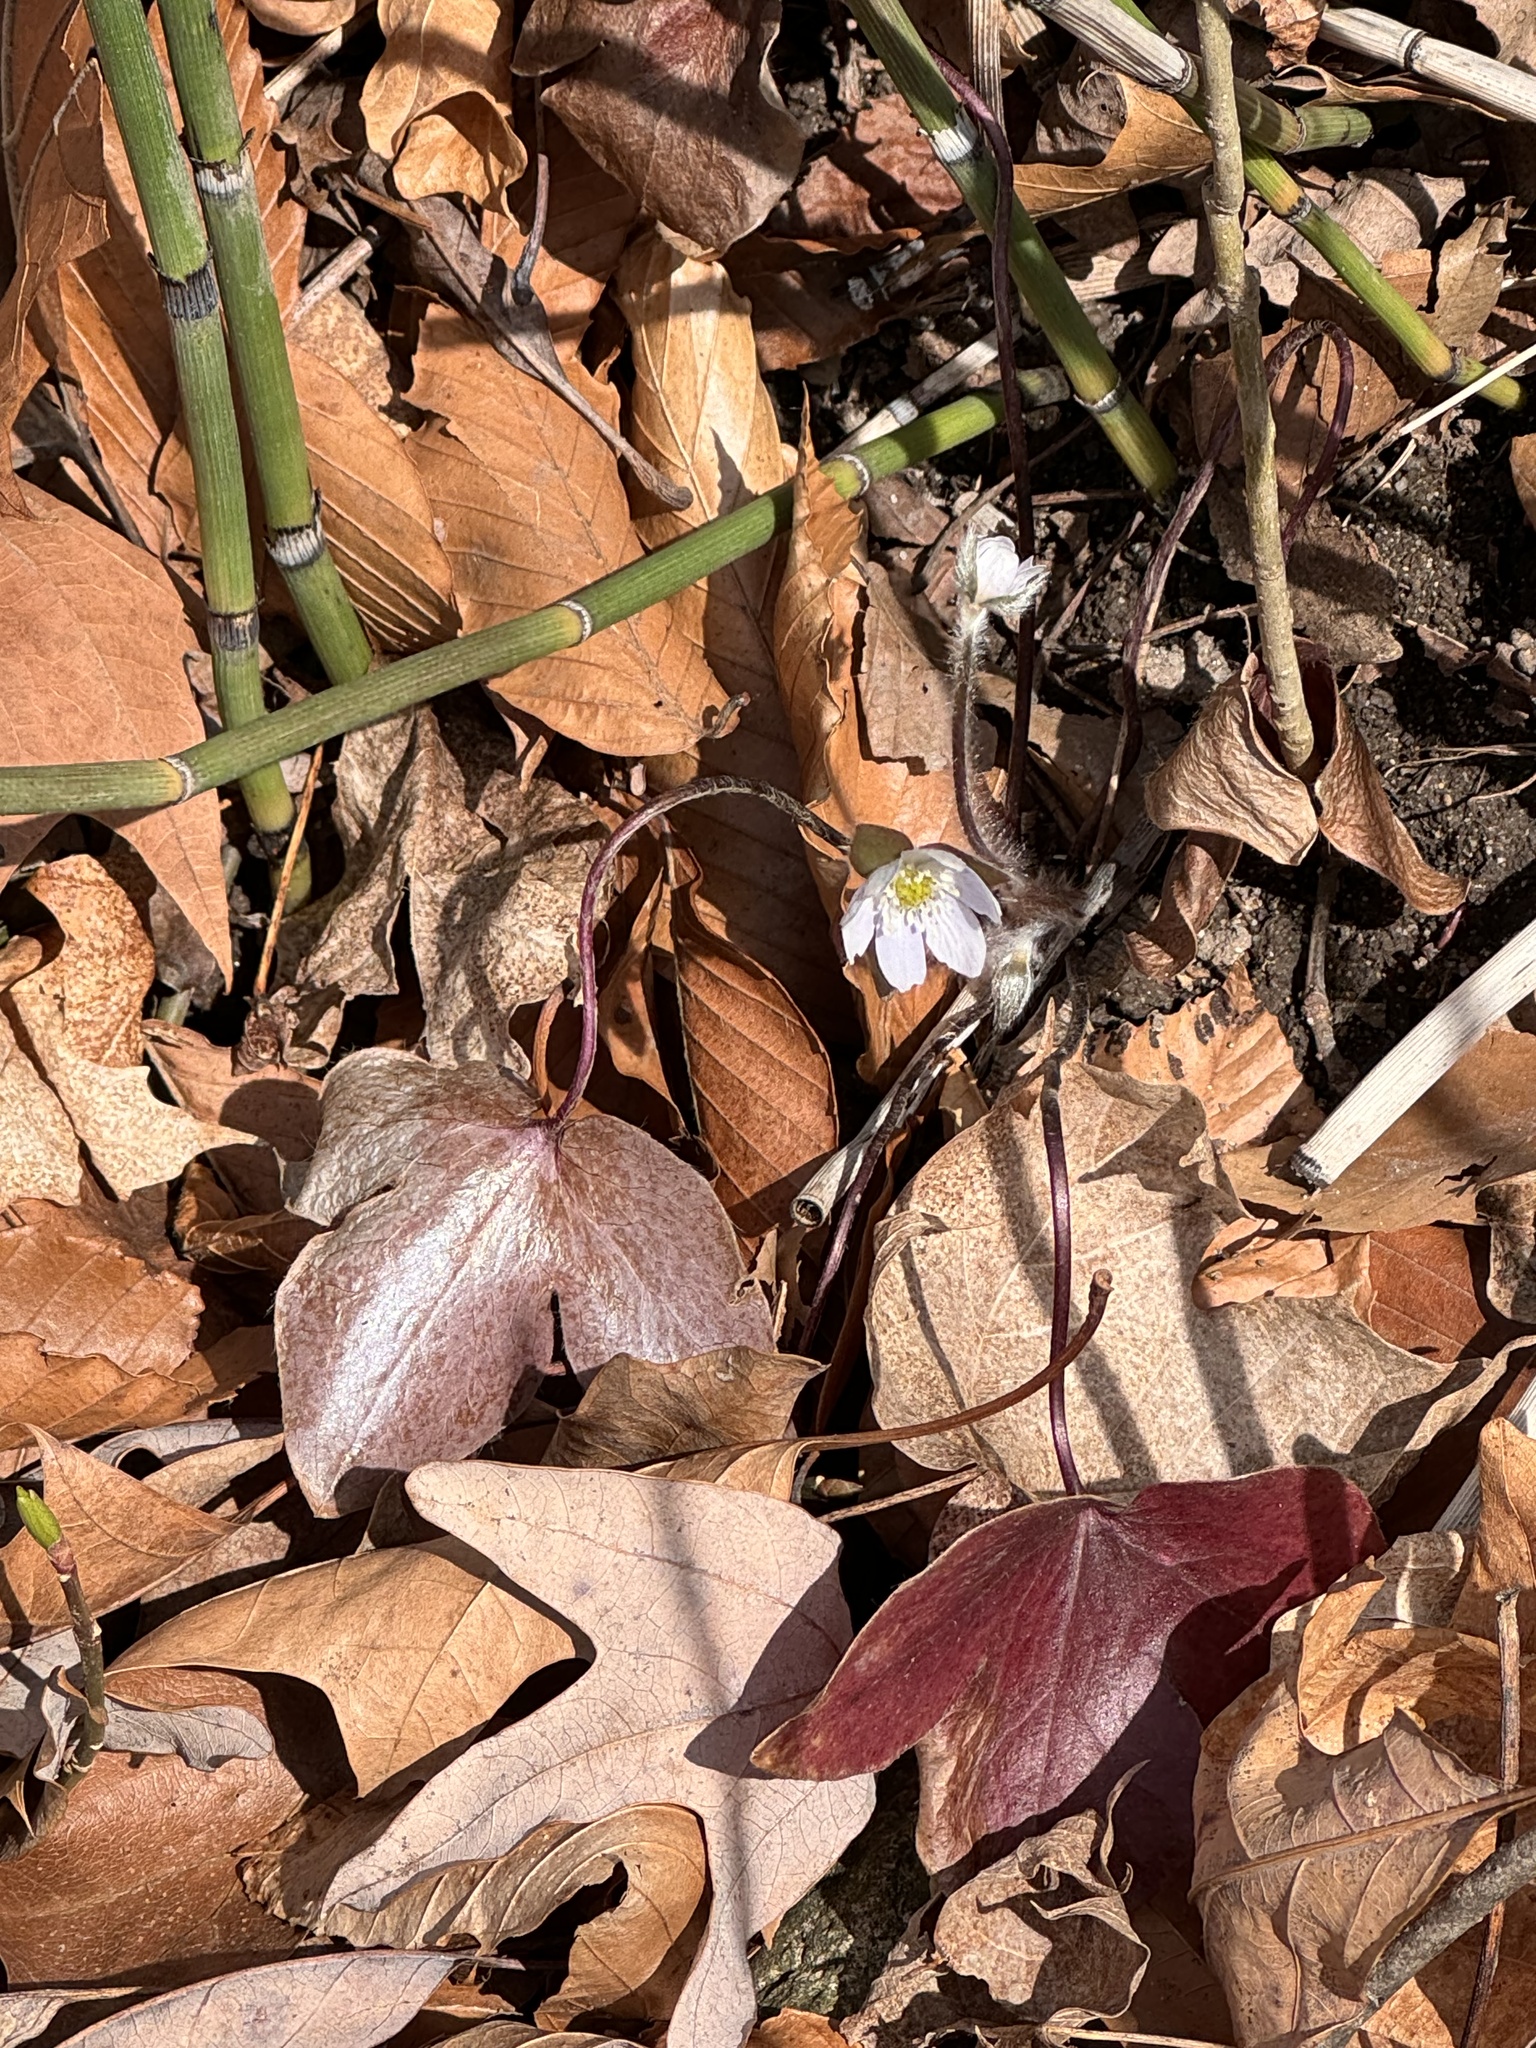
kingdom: Plantae
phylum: Tracheophyta
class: Magnoliopsida
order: Ranunculales
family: Ranunculaceae
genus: Hepatica
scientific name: Hepatica acutiloba
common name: Sharp-lobed hepatica
